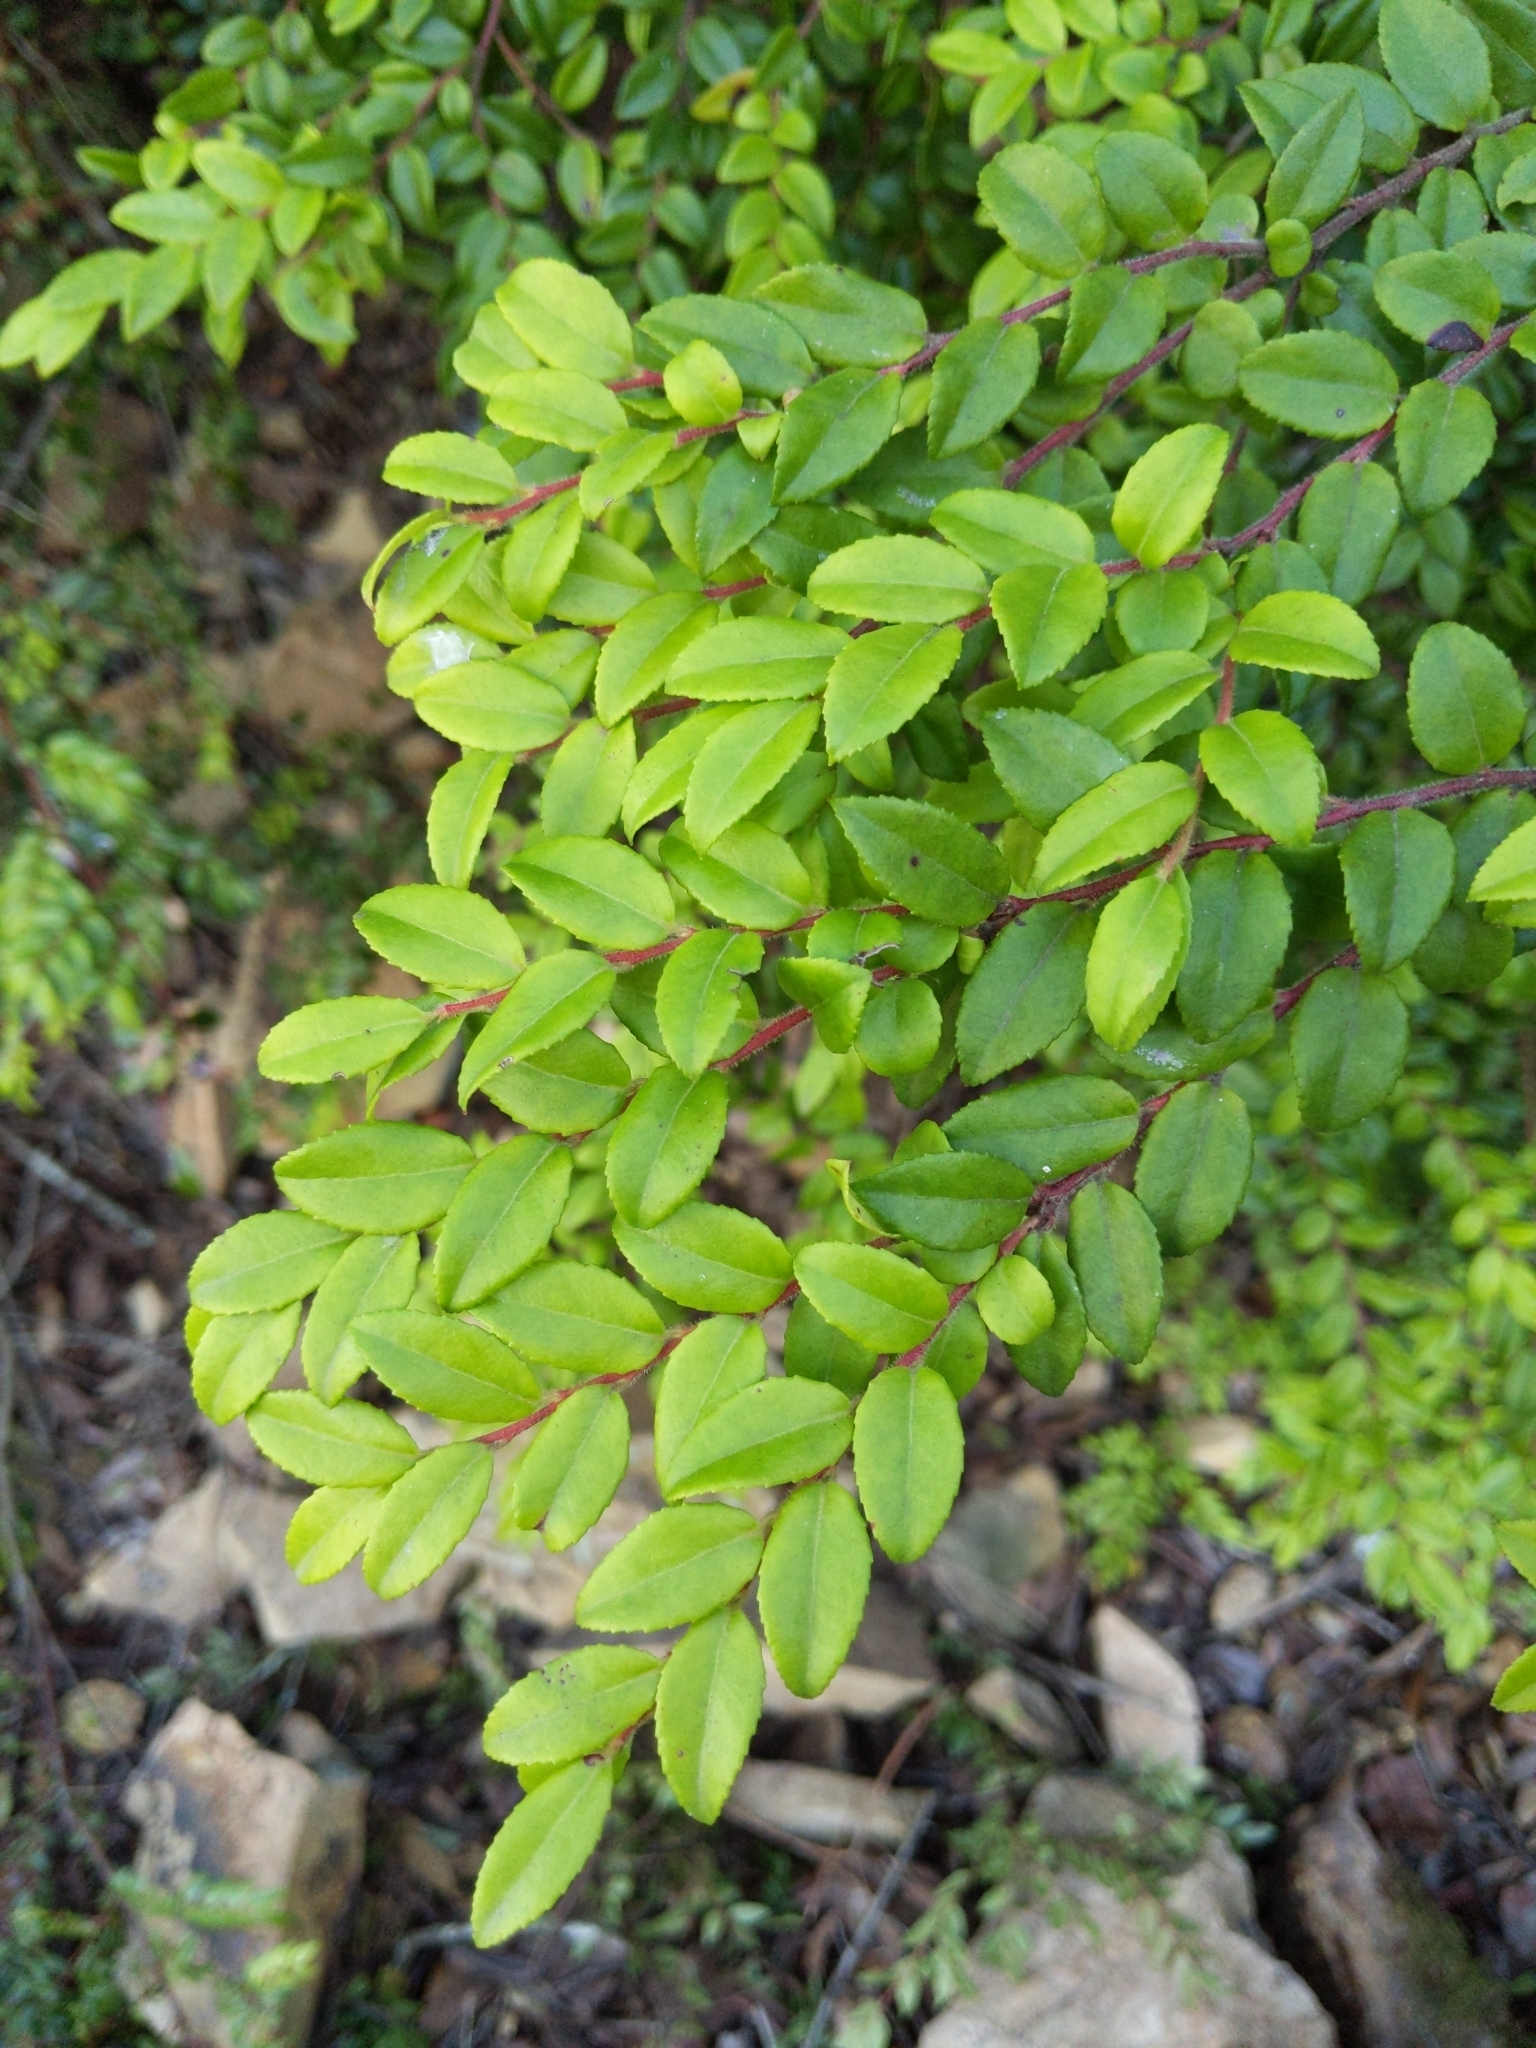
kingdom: Plantae
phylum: Tracheophyta
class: Magnoliopsida
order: Ericales
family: Ericaceae
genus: Vaccinium
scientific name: Vaccinium ovatum
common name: California-huckleberry
